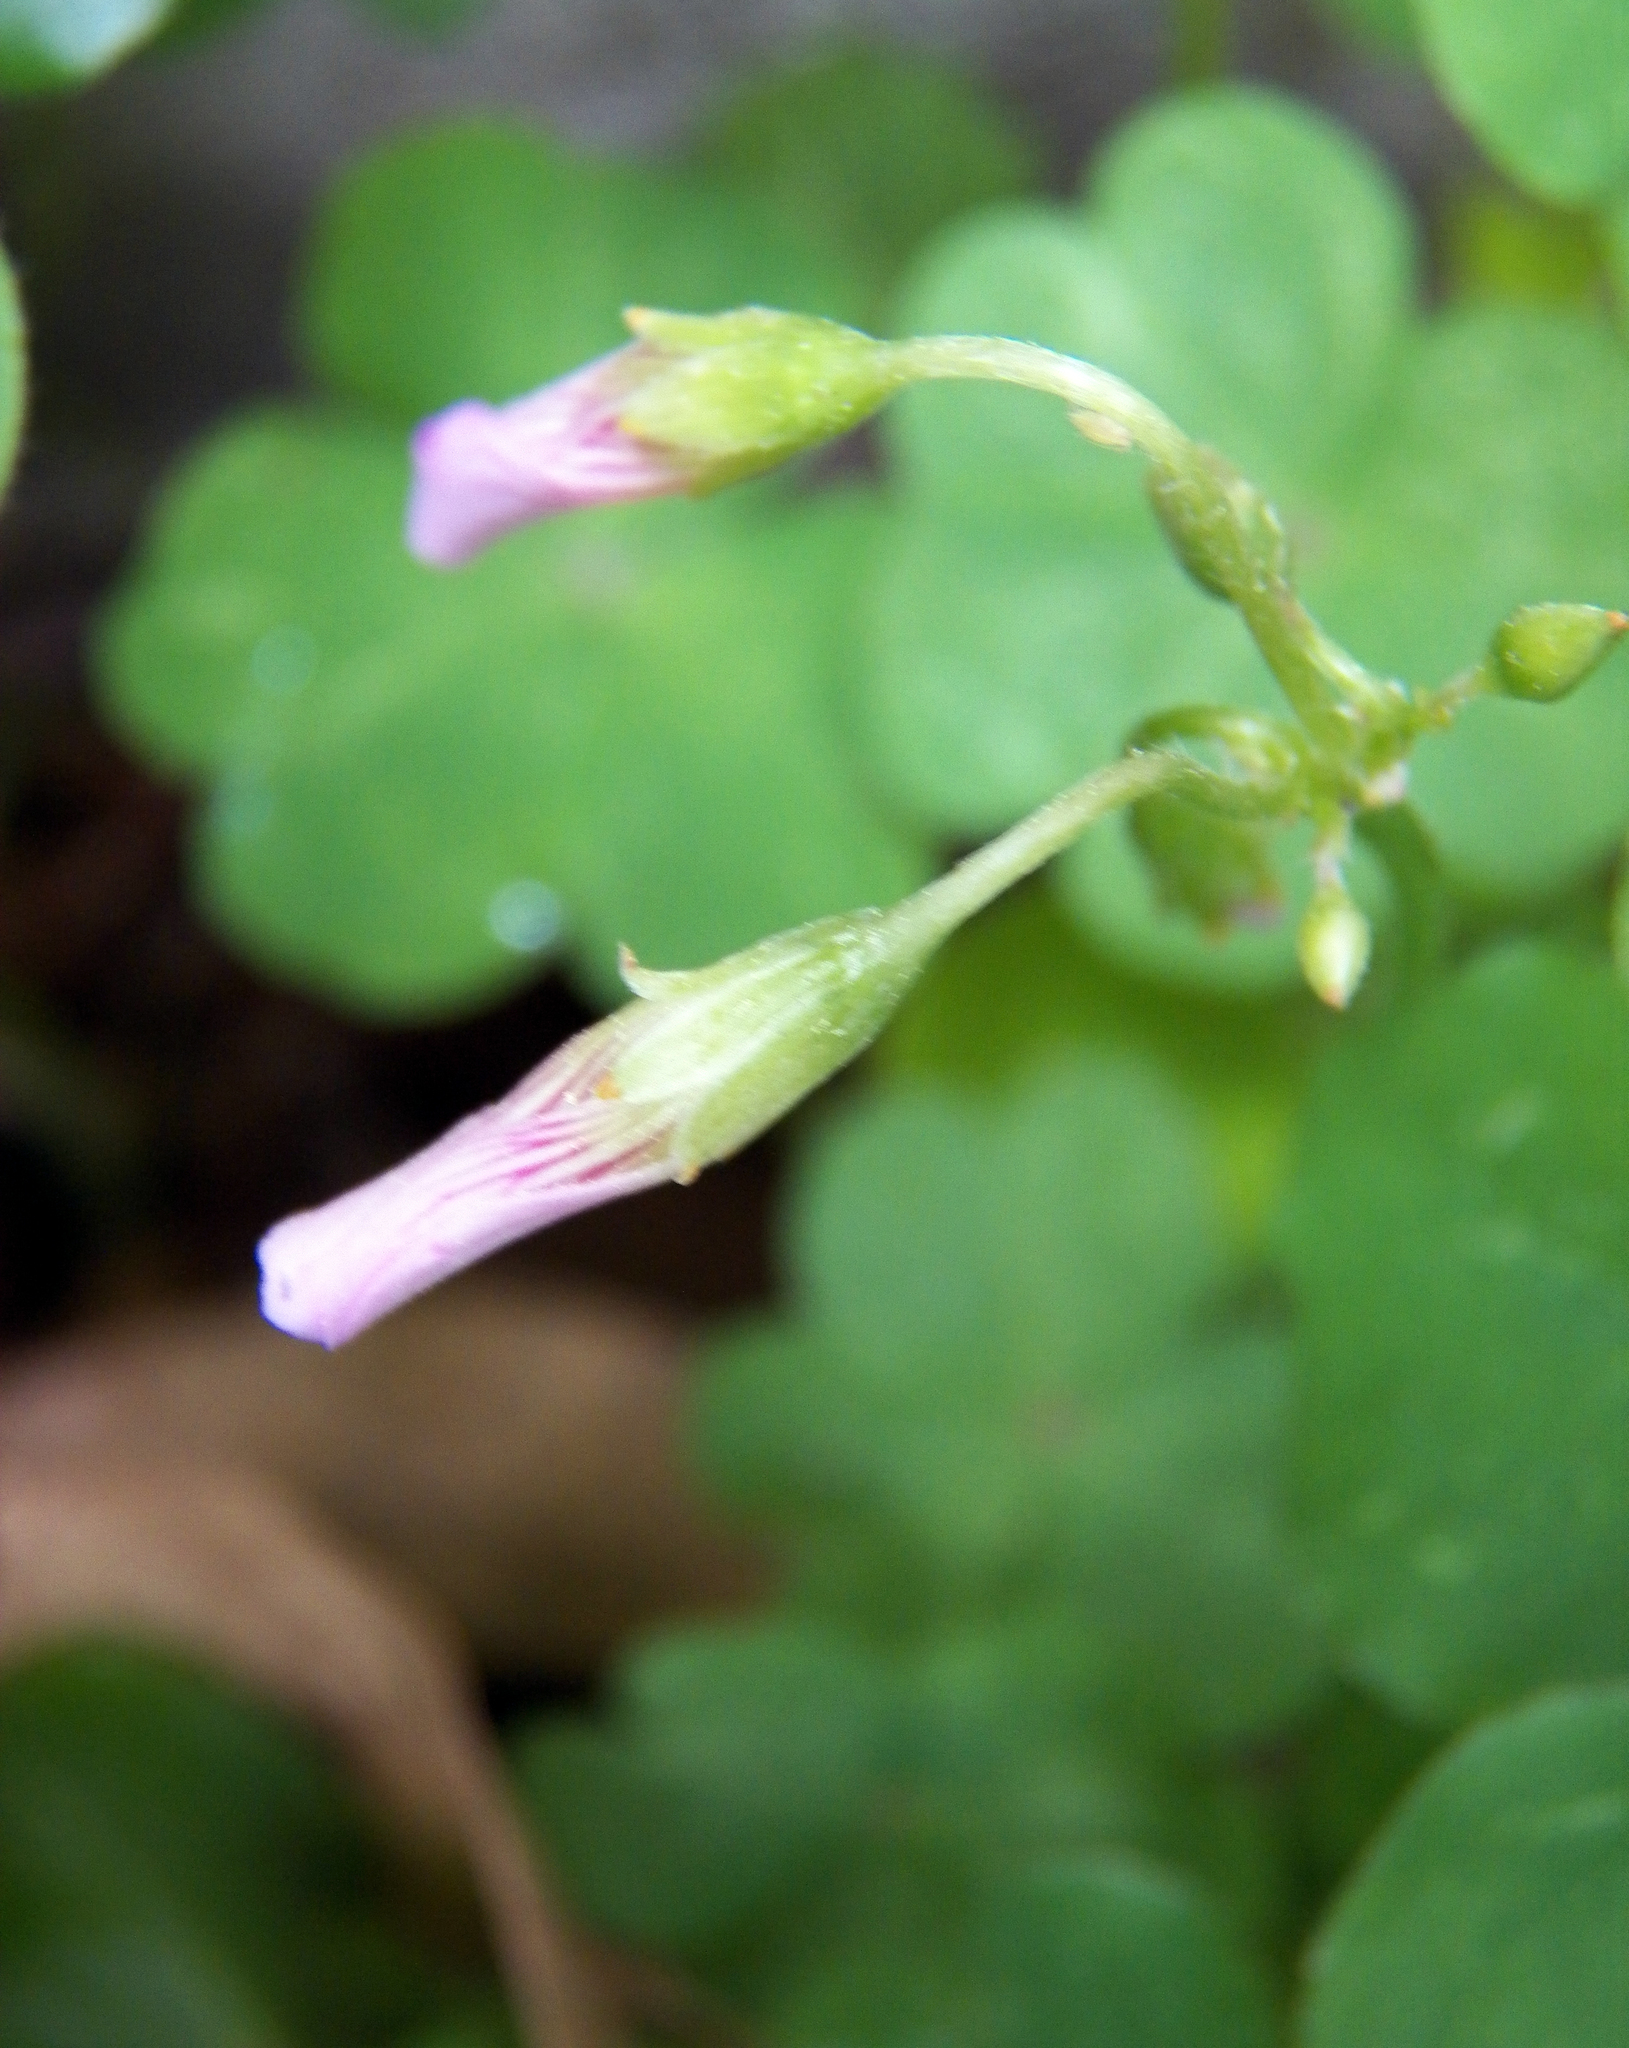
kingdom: Plantae
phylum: Tracheophyta
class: Magnoliopsida
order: Oxalidales
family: Oxalidaceae
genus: Oxalis
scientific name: Oxalis debilis
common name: Large-flowered pink-sorrel
